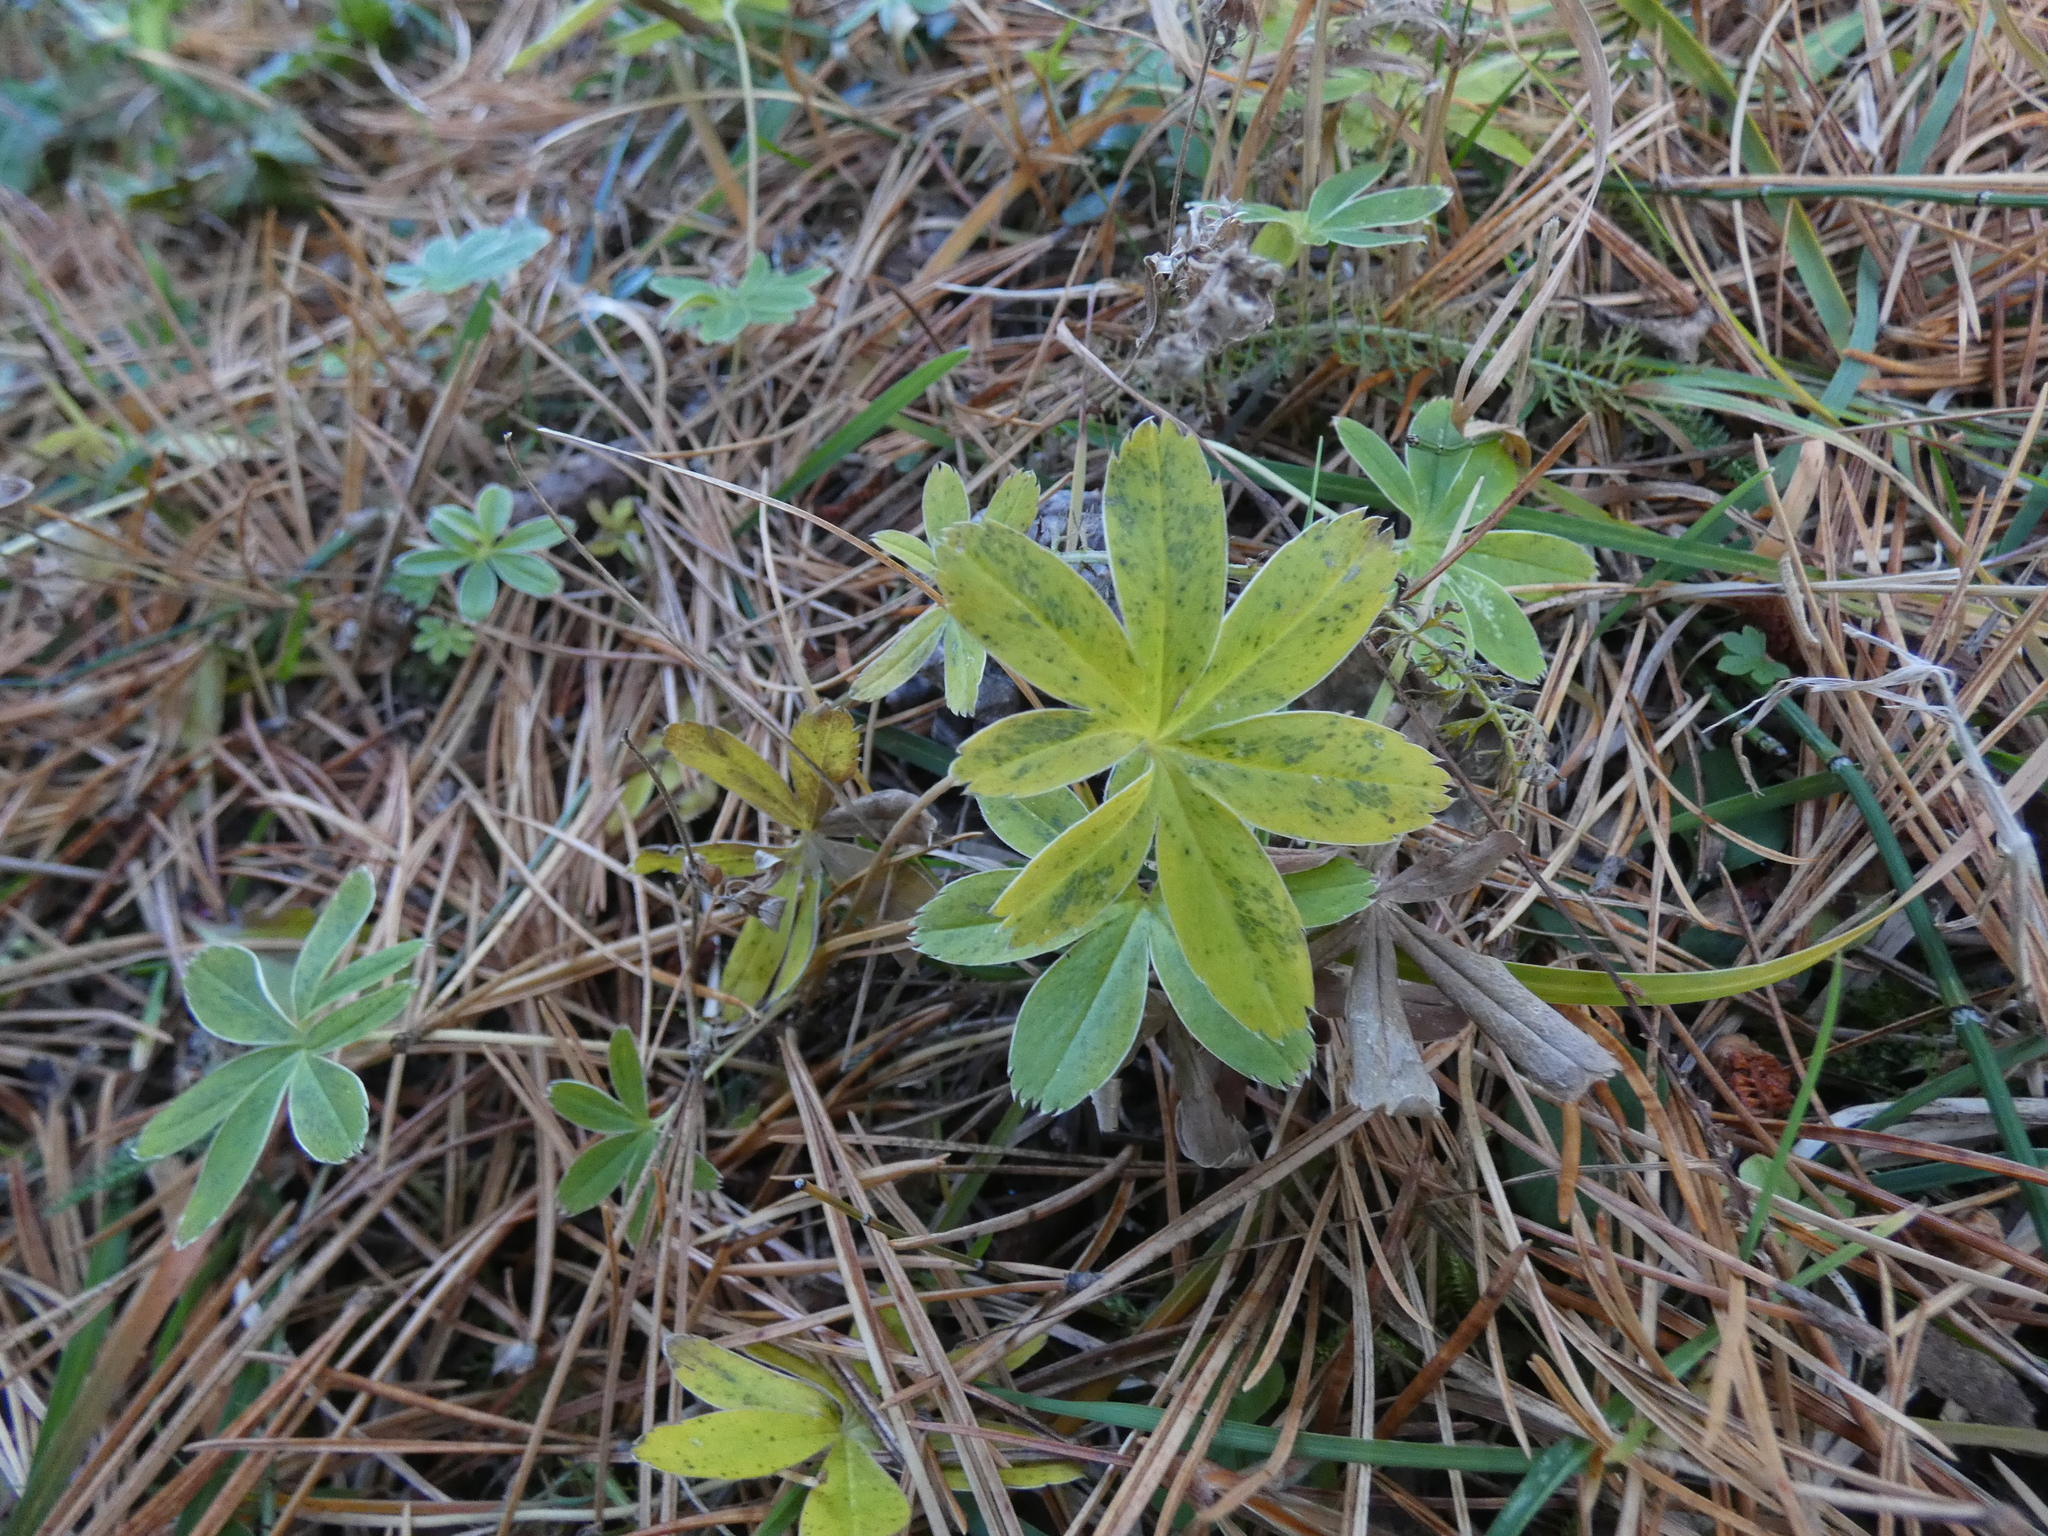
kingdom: Plantae
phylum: Tracheophyta
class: Magnoliopsida
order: Rosales
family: Rosaceae
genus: Alchemilla
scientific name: Alchemilla alpina
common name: Alpine lady's-mantle
